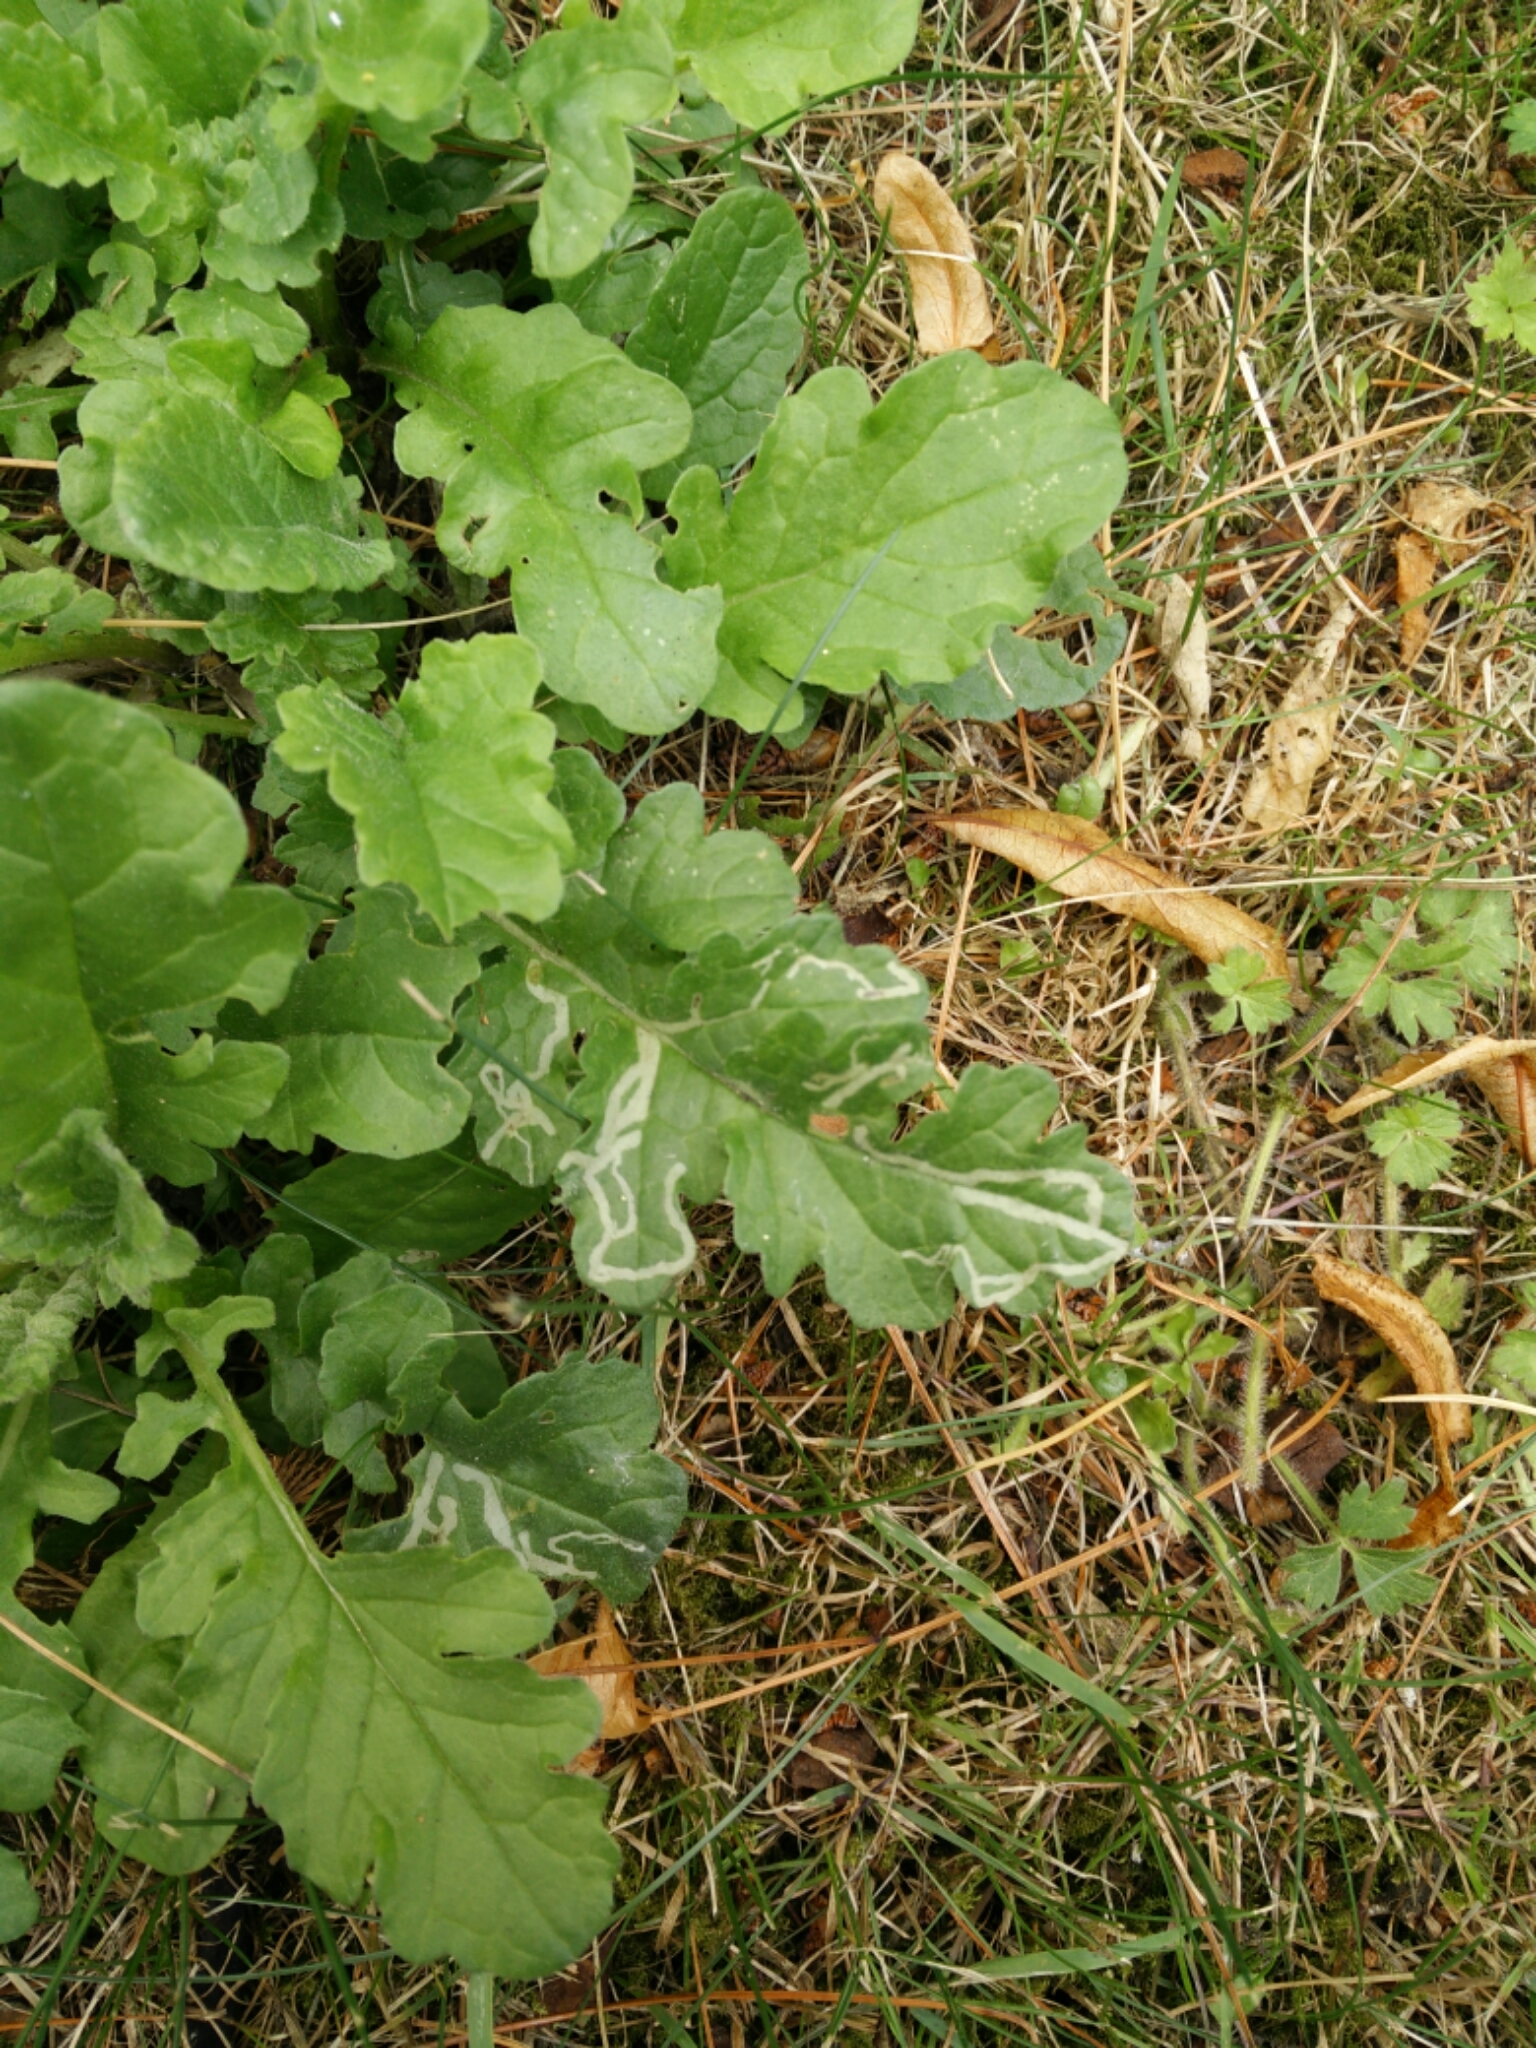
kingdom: Animalia
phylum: Arthropoda
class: Insecta
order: Diptera
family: Agromyzidae
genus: Phytomyza
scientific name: Phytomyza syngenesiae
